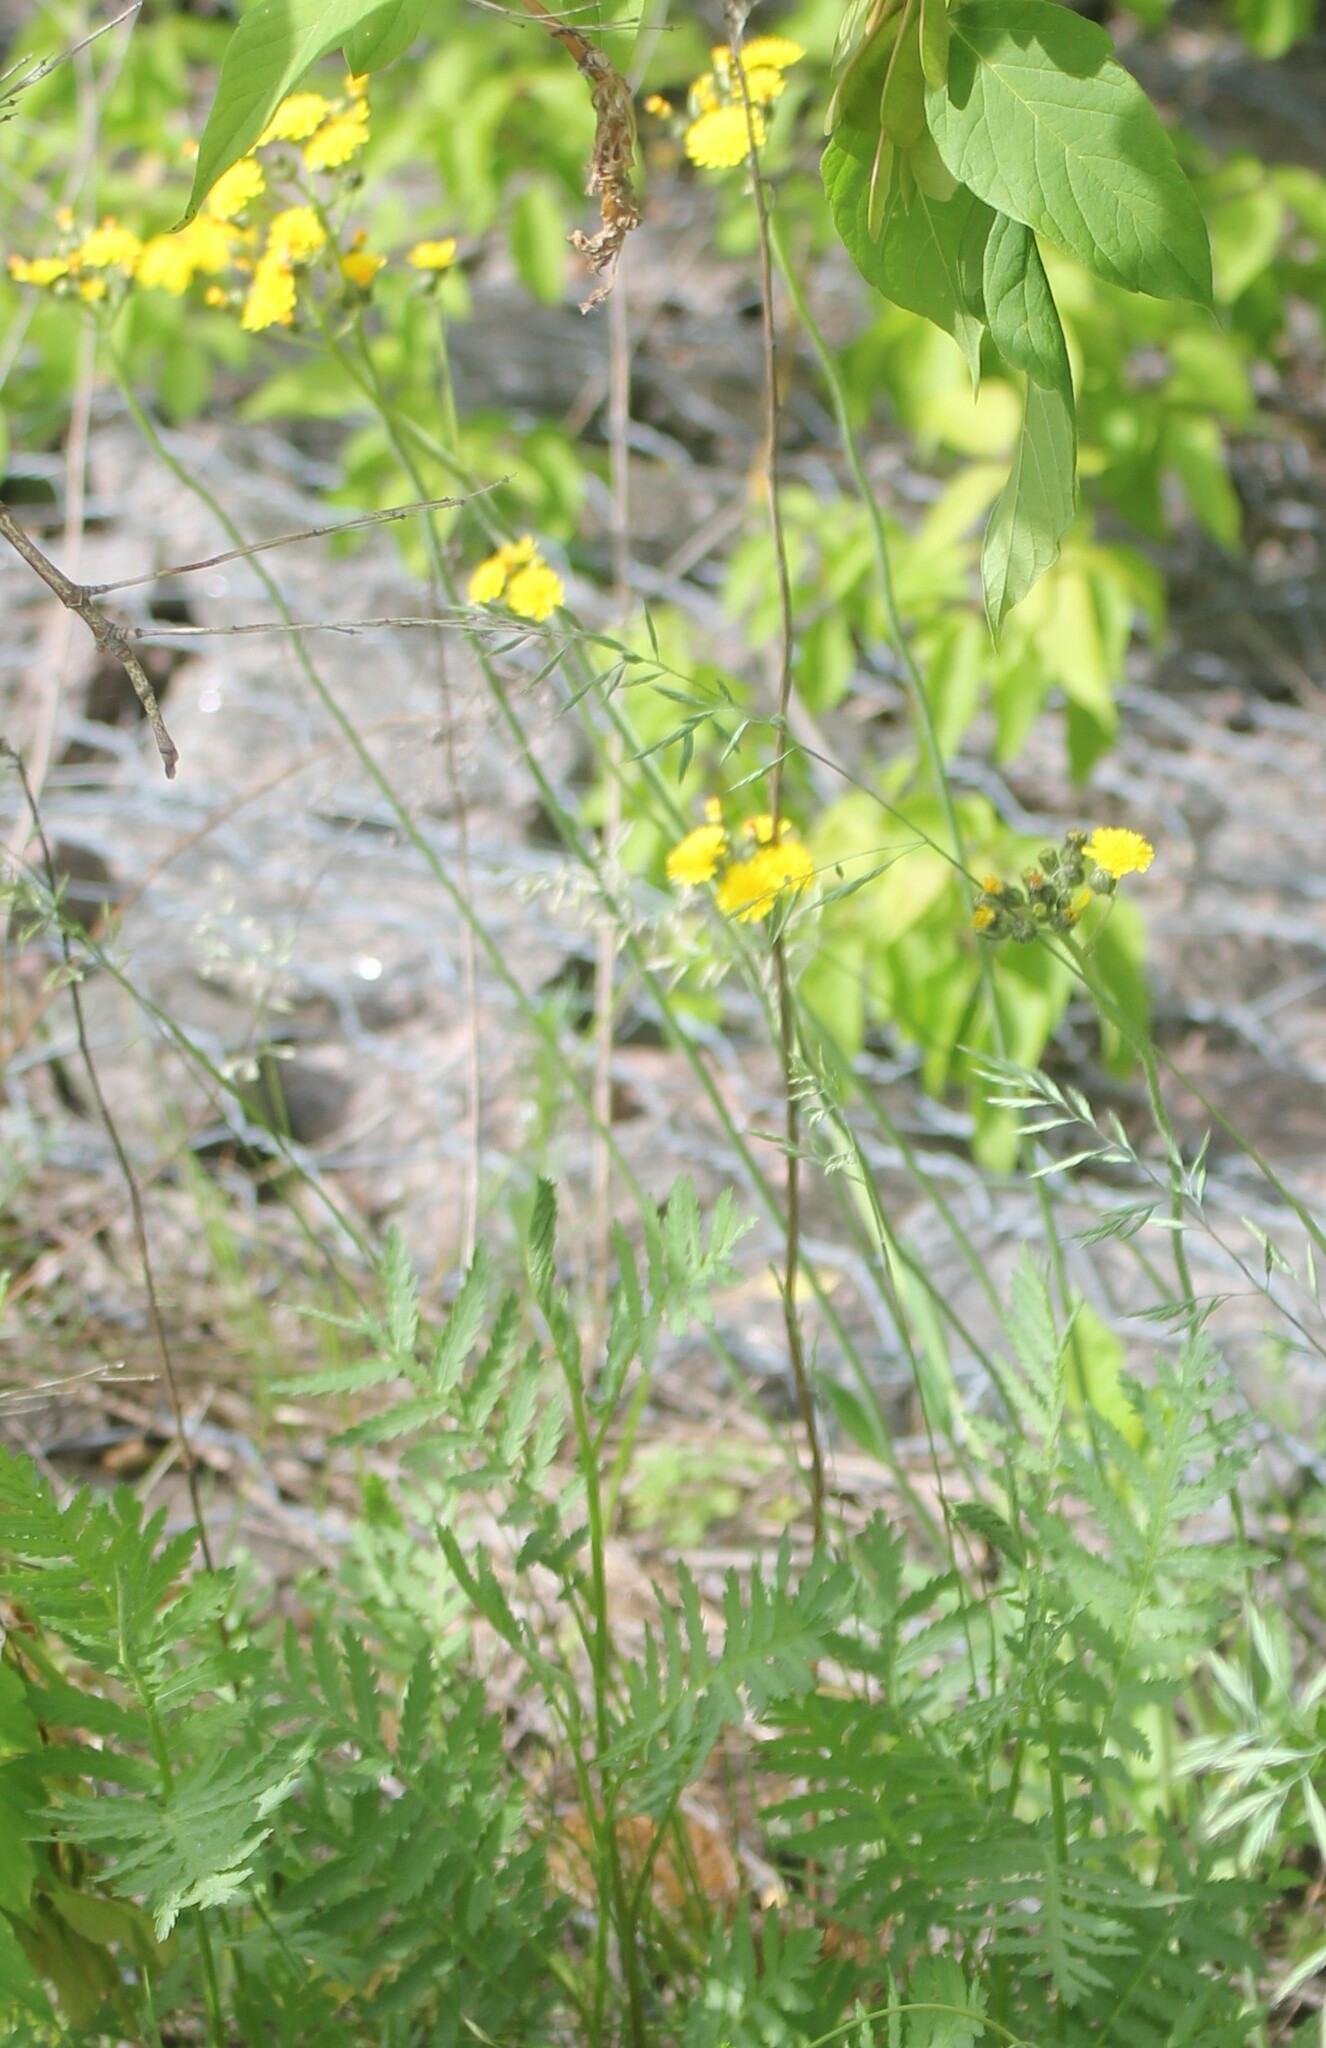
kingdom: Plantae
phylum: Tracheophyta
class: Magnoliopsida
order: Asterales
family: Asteraceae
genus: Tanacetum
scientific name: Tanacetum vulgare
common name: Common tansy
